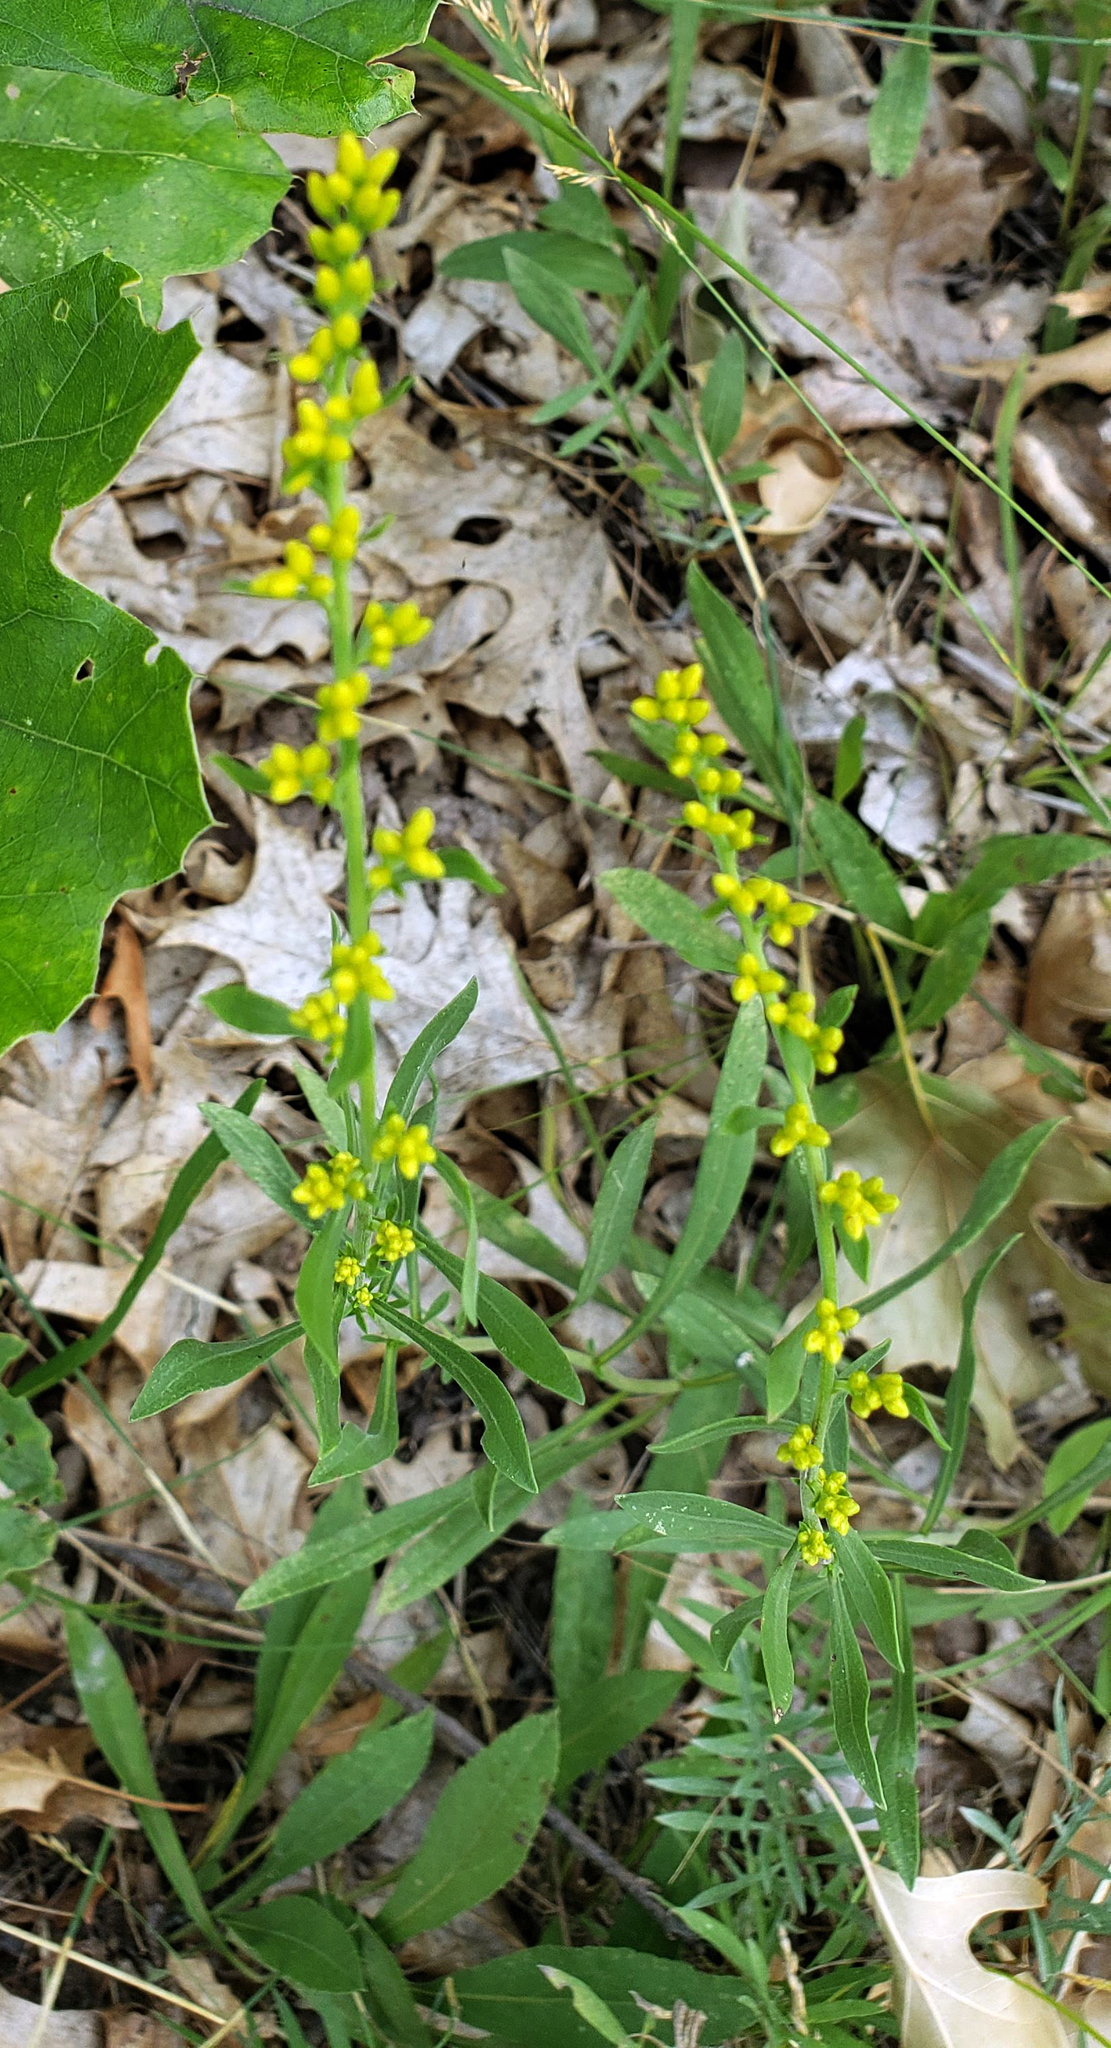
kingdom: Plantae
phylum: Tracheophyta
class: Magnoliopsida
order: Asterales
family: Asteraceae
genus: Solidago
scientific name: Solidago nemoralis
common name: Grey goldenrod
